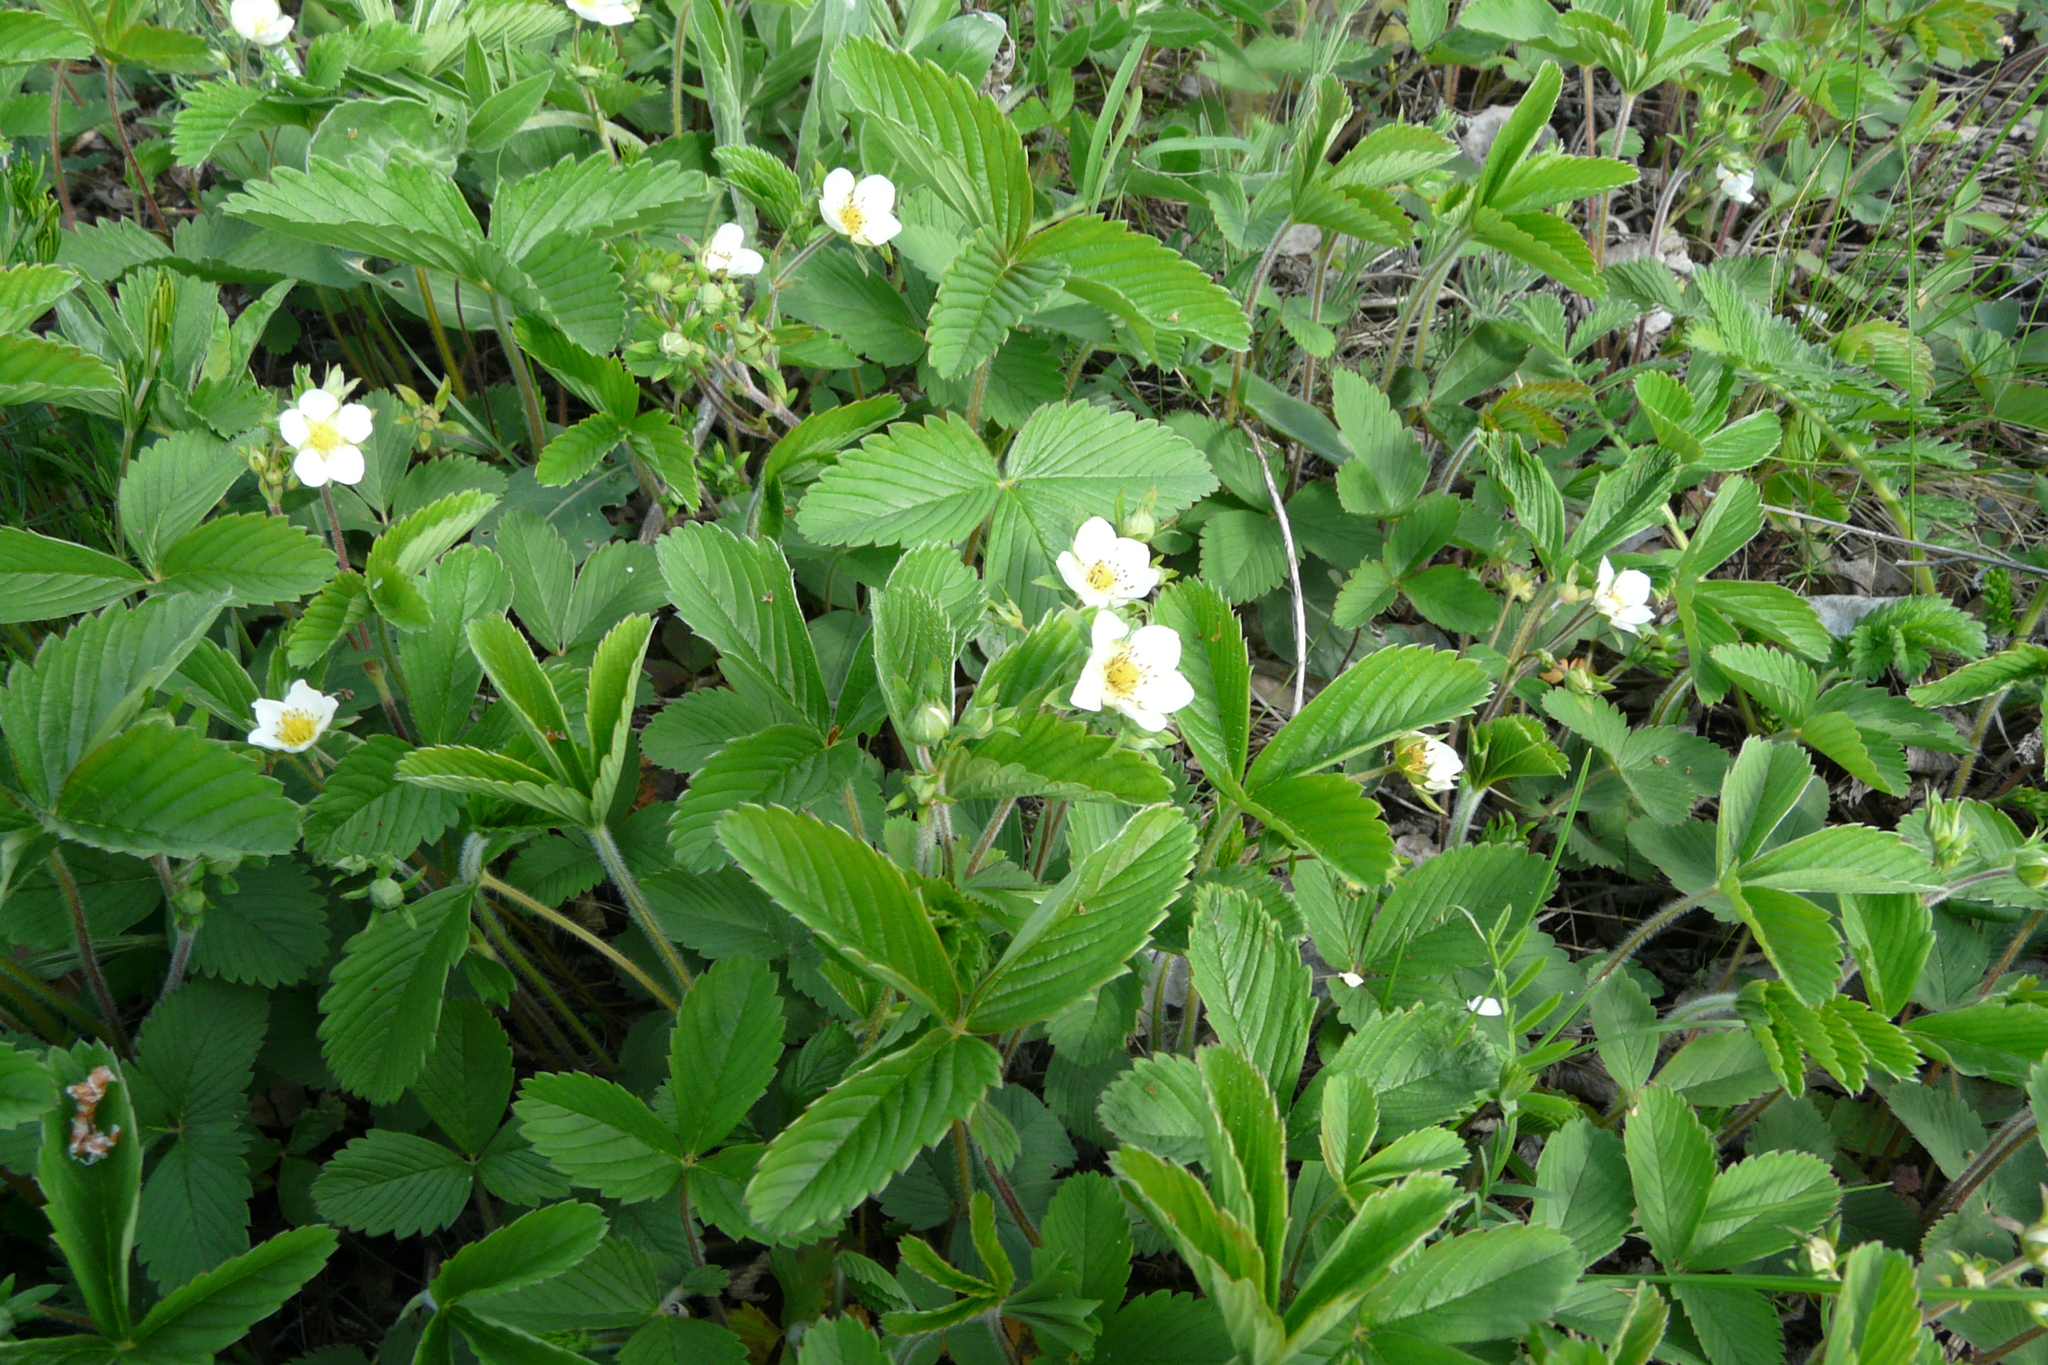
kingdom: Plantae
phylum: Tracheophyta
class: Magnoliopsida
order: Rosales
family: Rosaceae
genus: Fragaria
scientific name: Fragaria viridis
